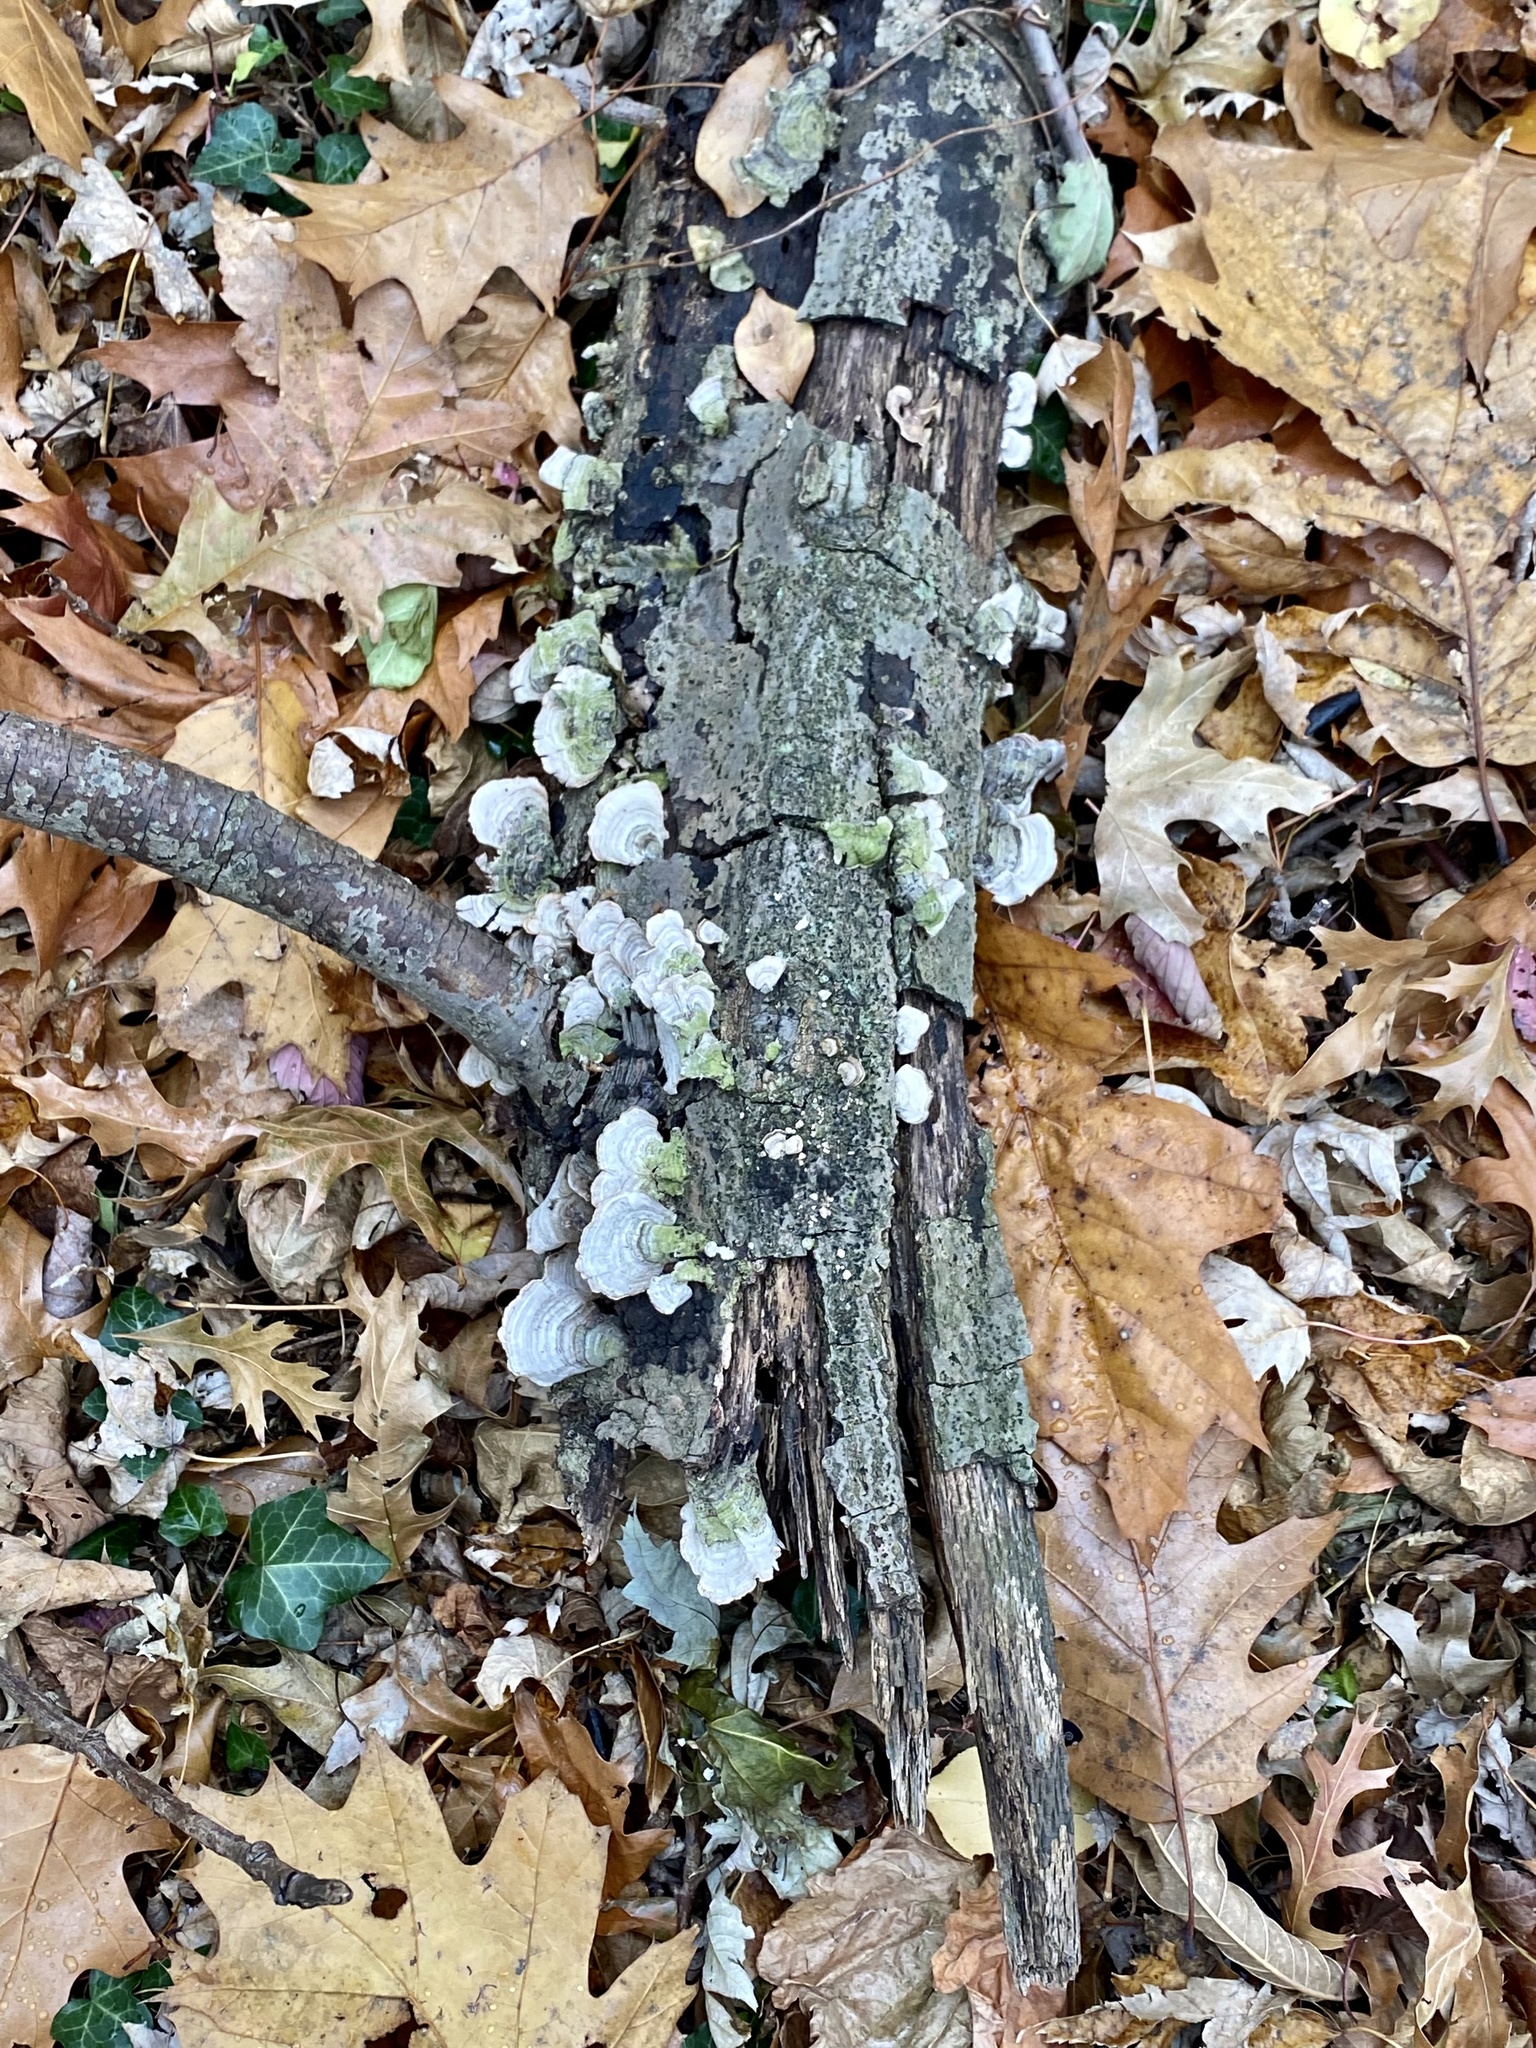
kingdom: Fungi
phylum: Basidiomycota
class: Agaricomycetes
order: Russulales
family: Stereaceae
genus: Stereum
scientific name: Stereum ostrea
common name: False turkeytail
